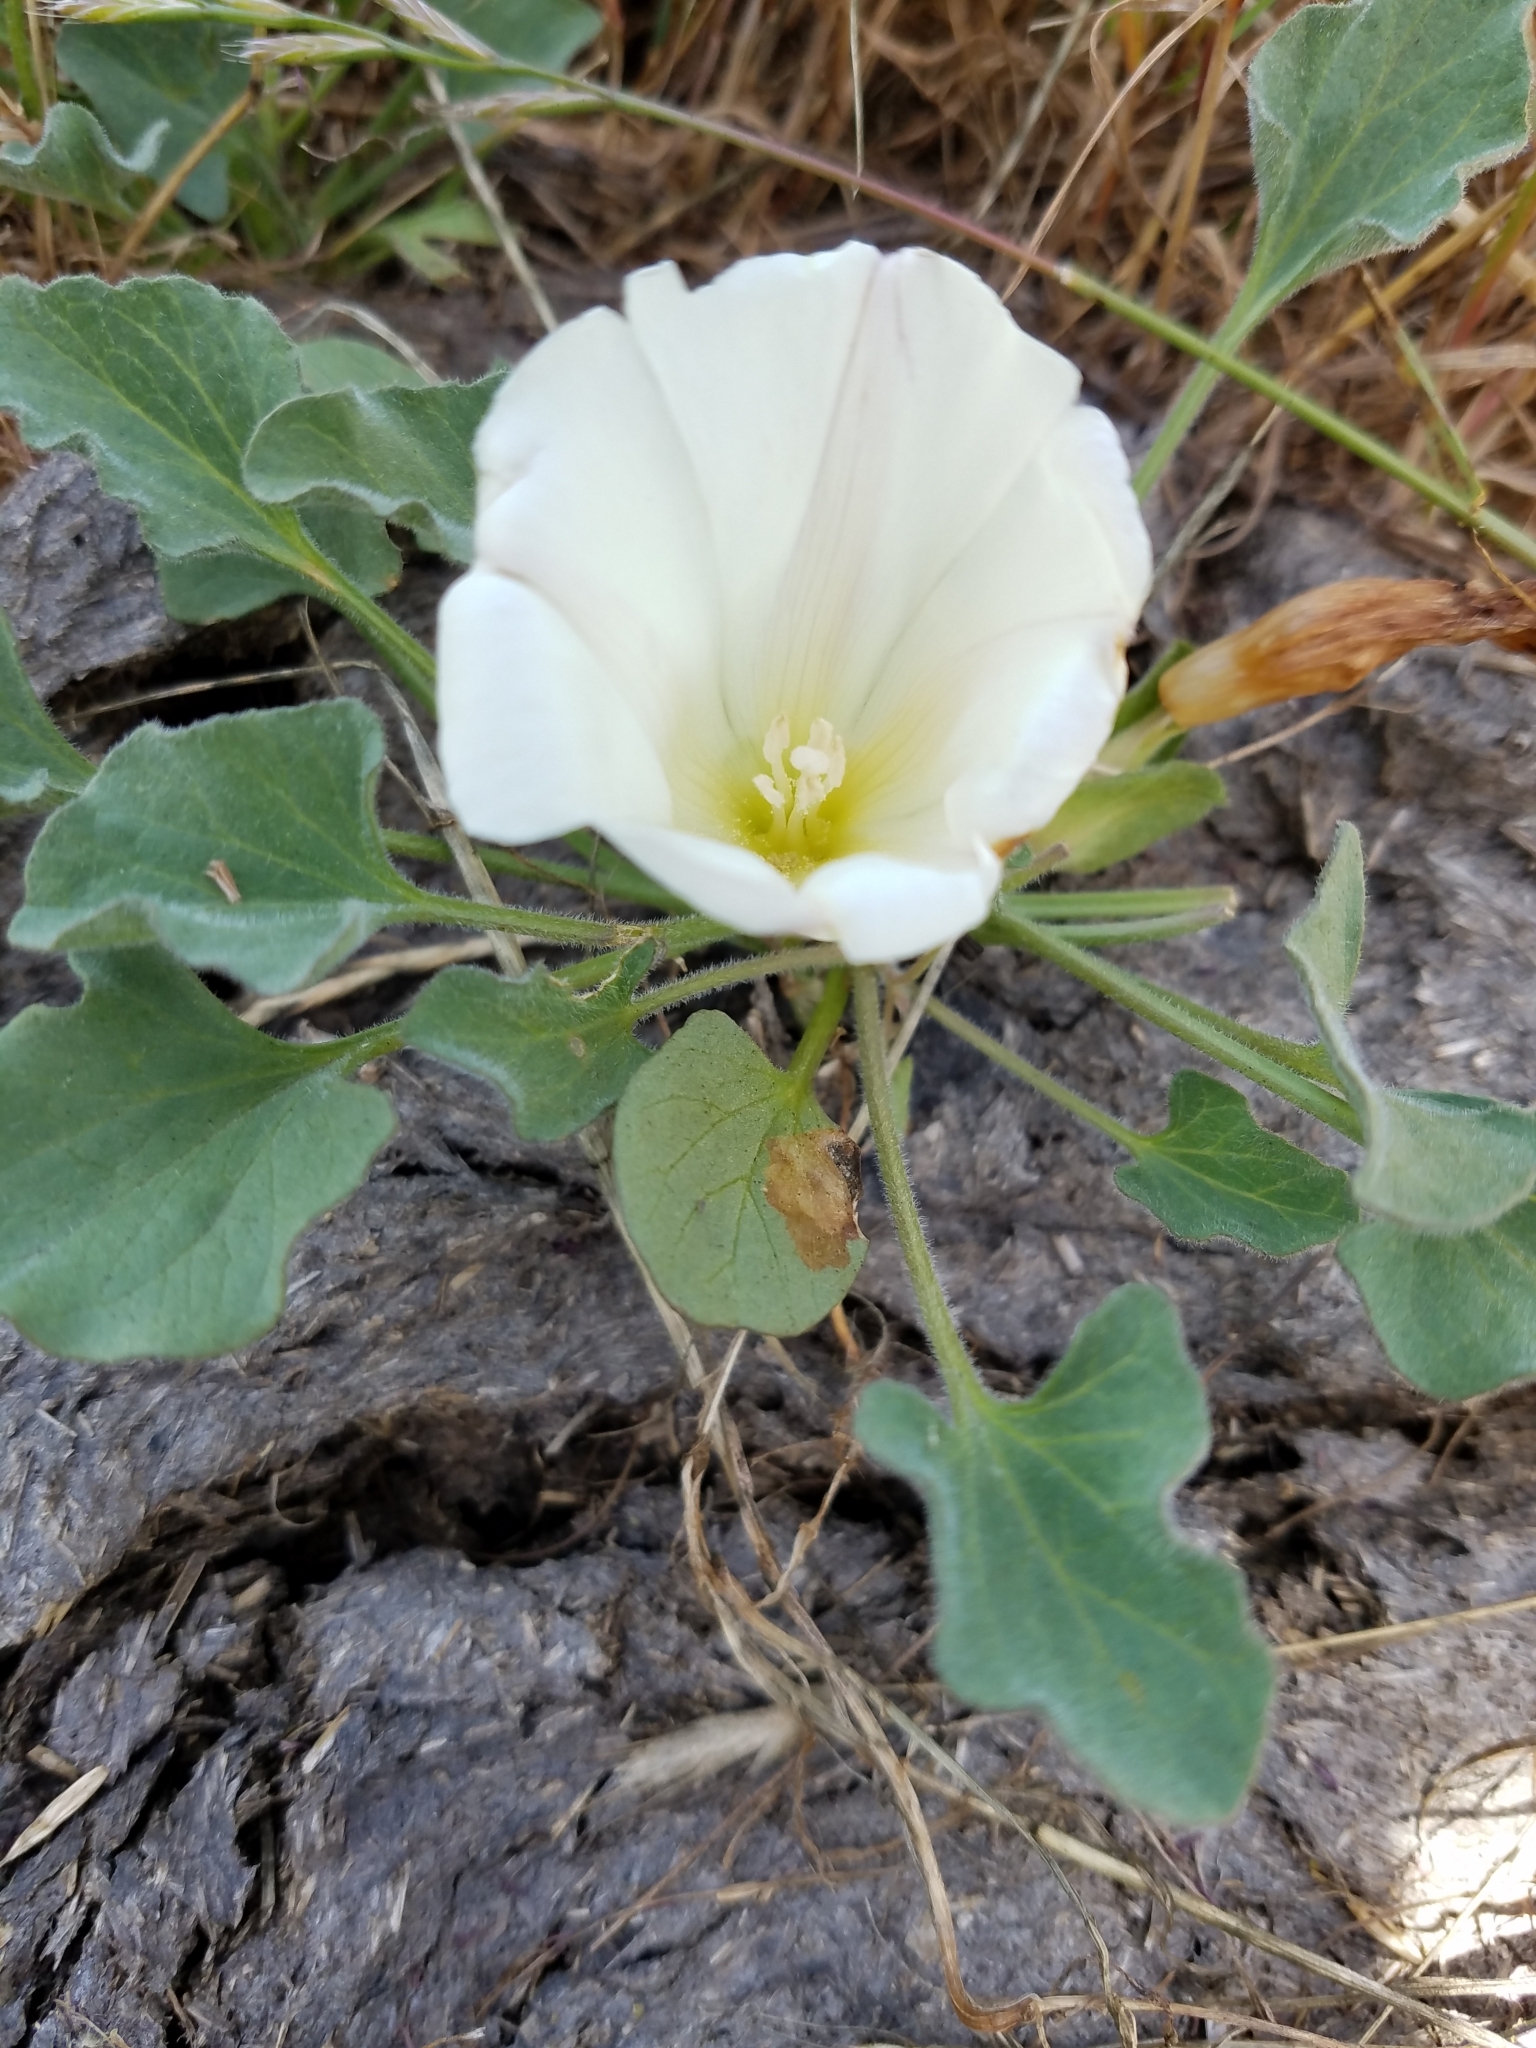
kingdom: Plantae
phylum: Tracheophyta
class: Magnoliopsida
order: Solanales
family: Convolvulaceae
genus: Calystegia
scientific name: Calystegia subacaulis
